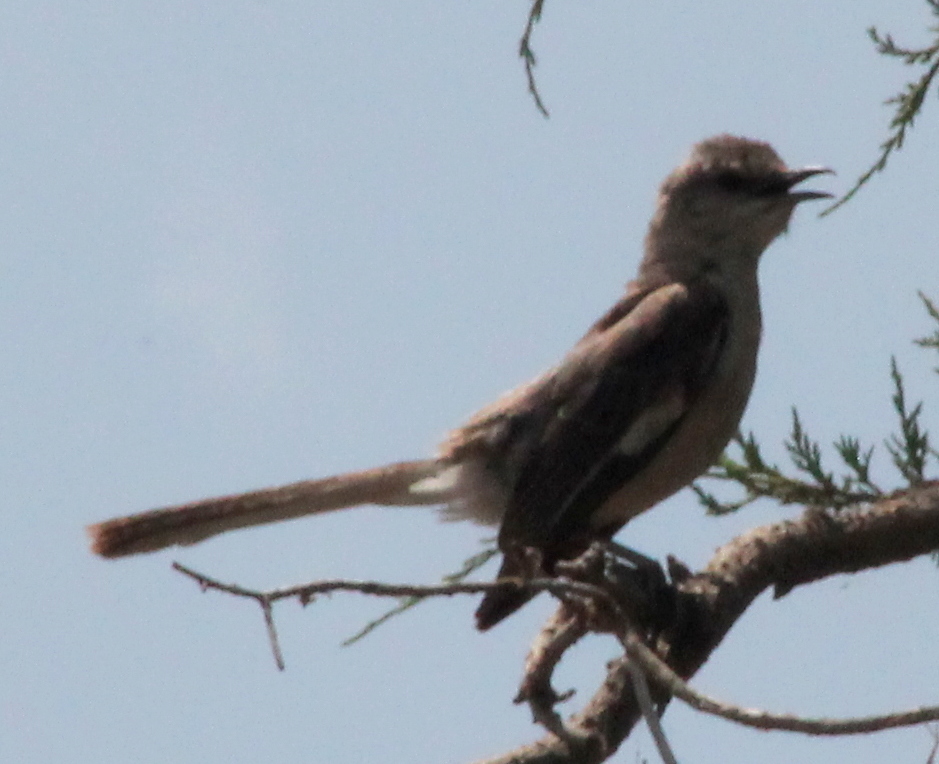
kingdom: Animalia
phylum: Chordata
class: Aves
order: Passeriformes
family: Mimidae
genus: Mimus
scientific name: Mimus polyglottos
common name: Northern mockingbird
